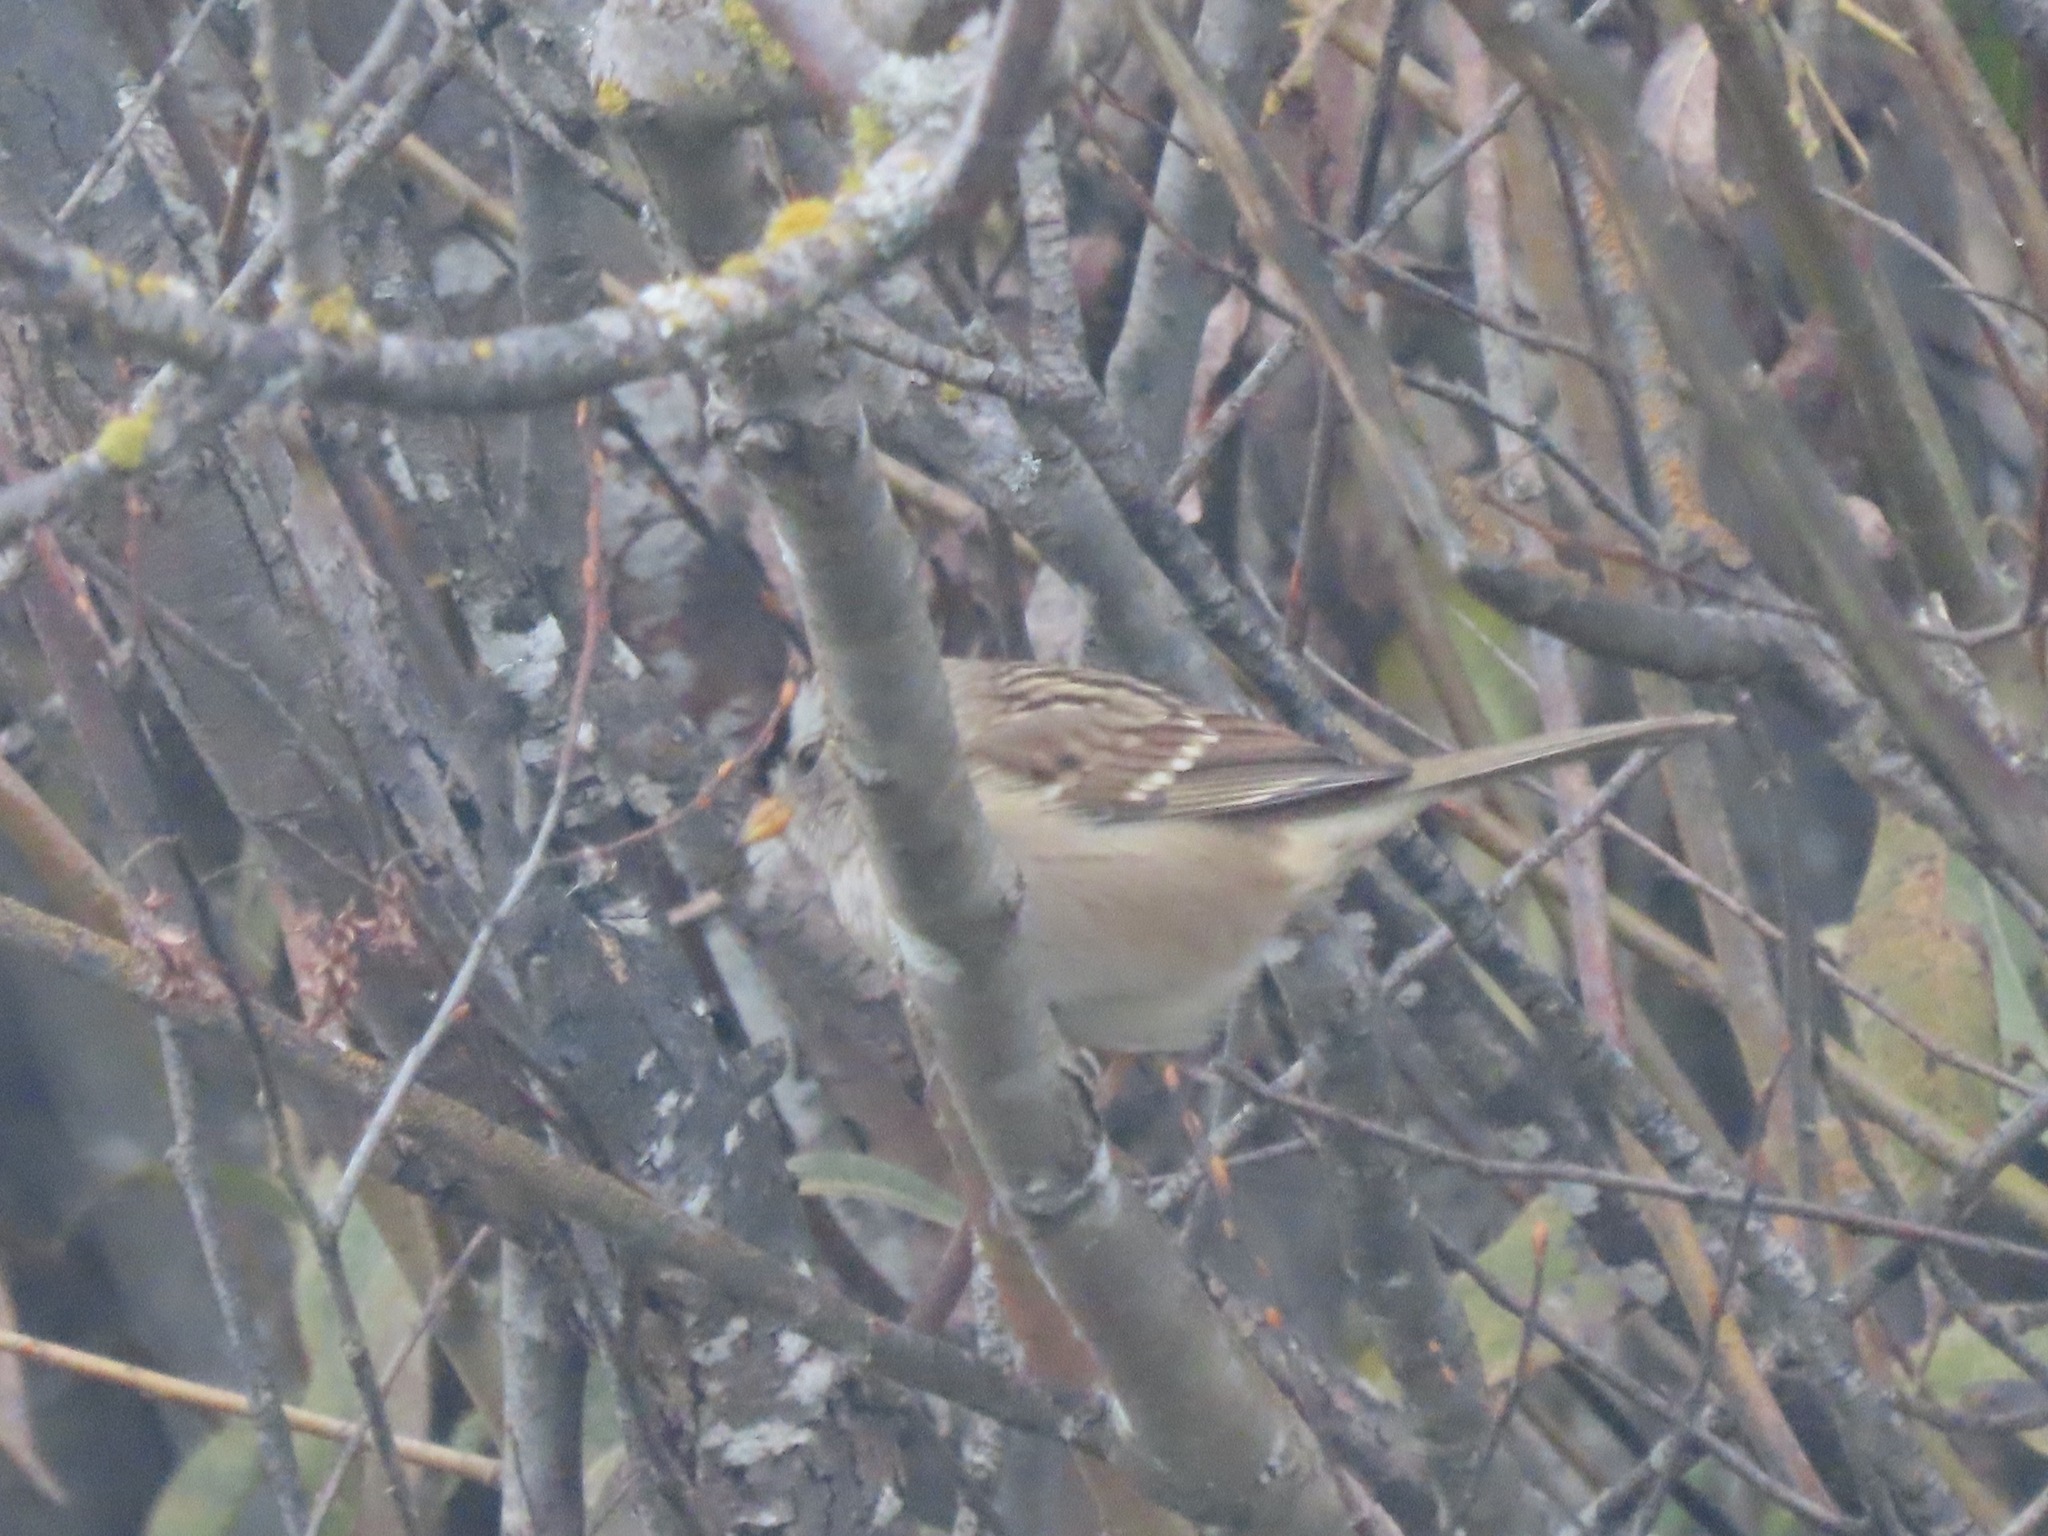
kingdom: Animalia
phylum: Chordata
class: Aves
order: Passeriformes
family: Passerellidae
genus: Zonotrichia
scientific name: Zonotrichia leucophrys
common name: White-crowned sparrow
